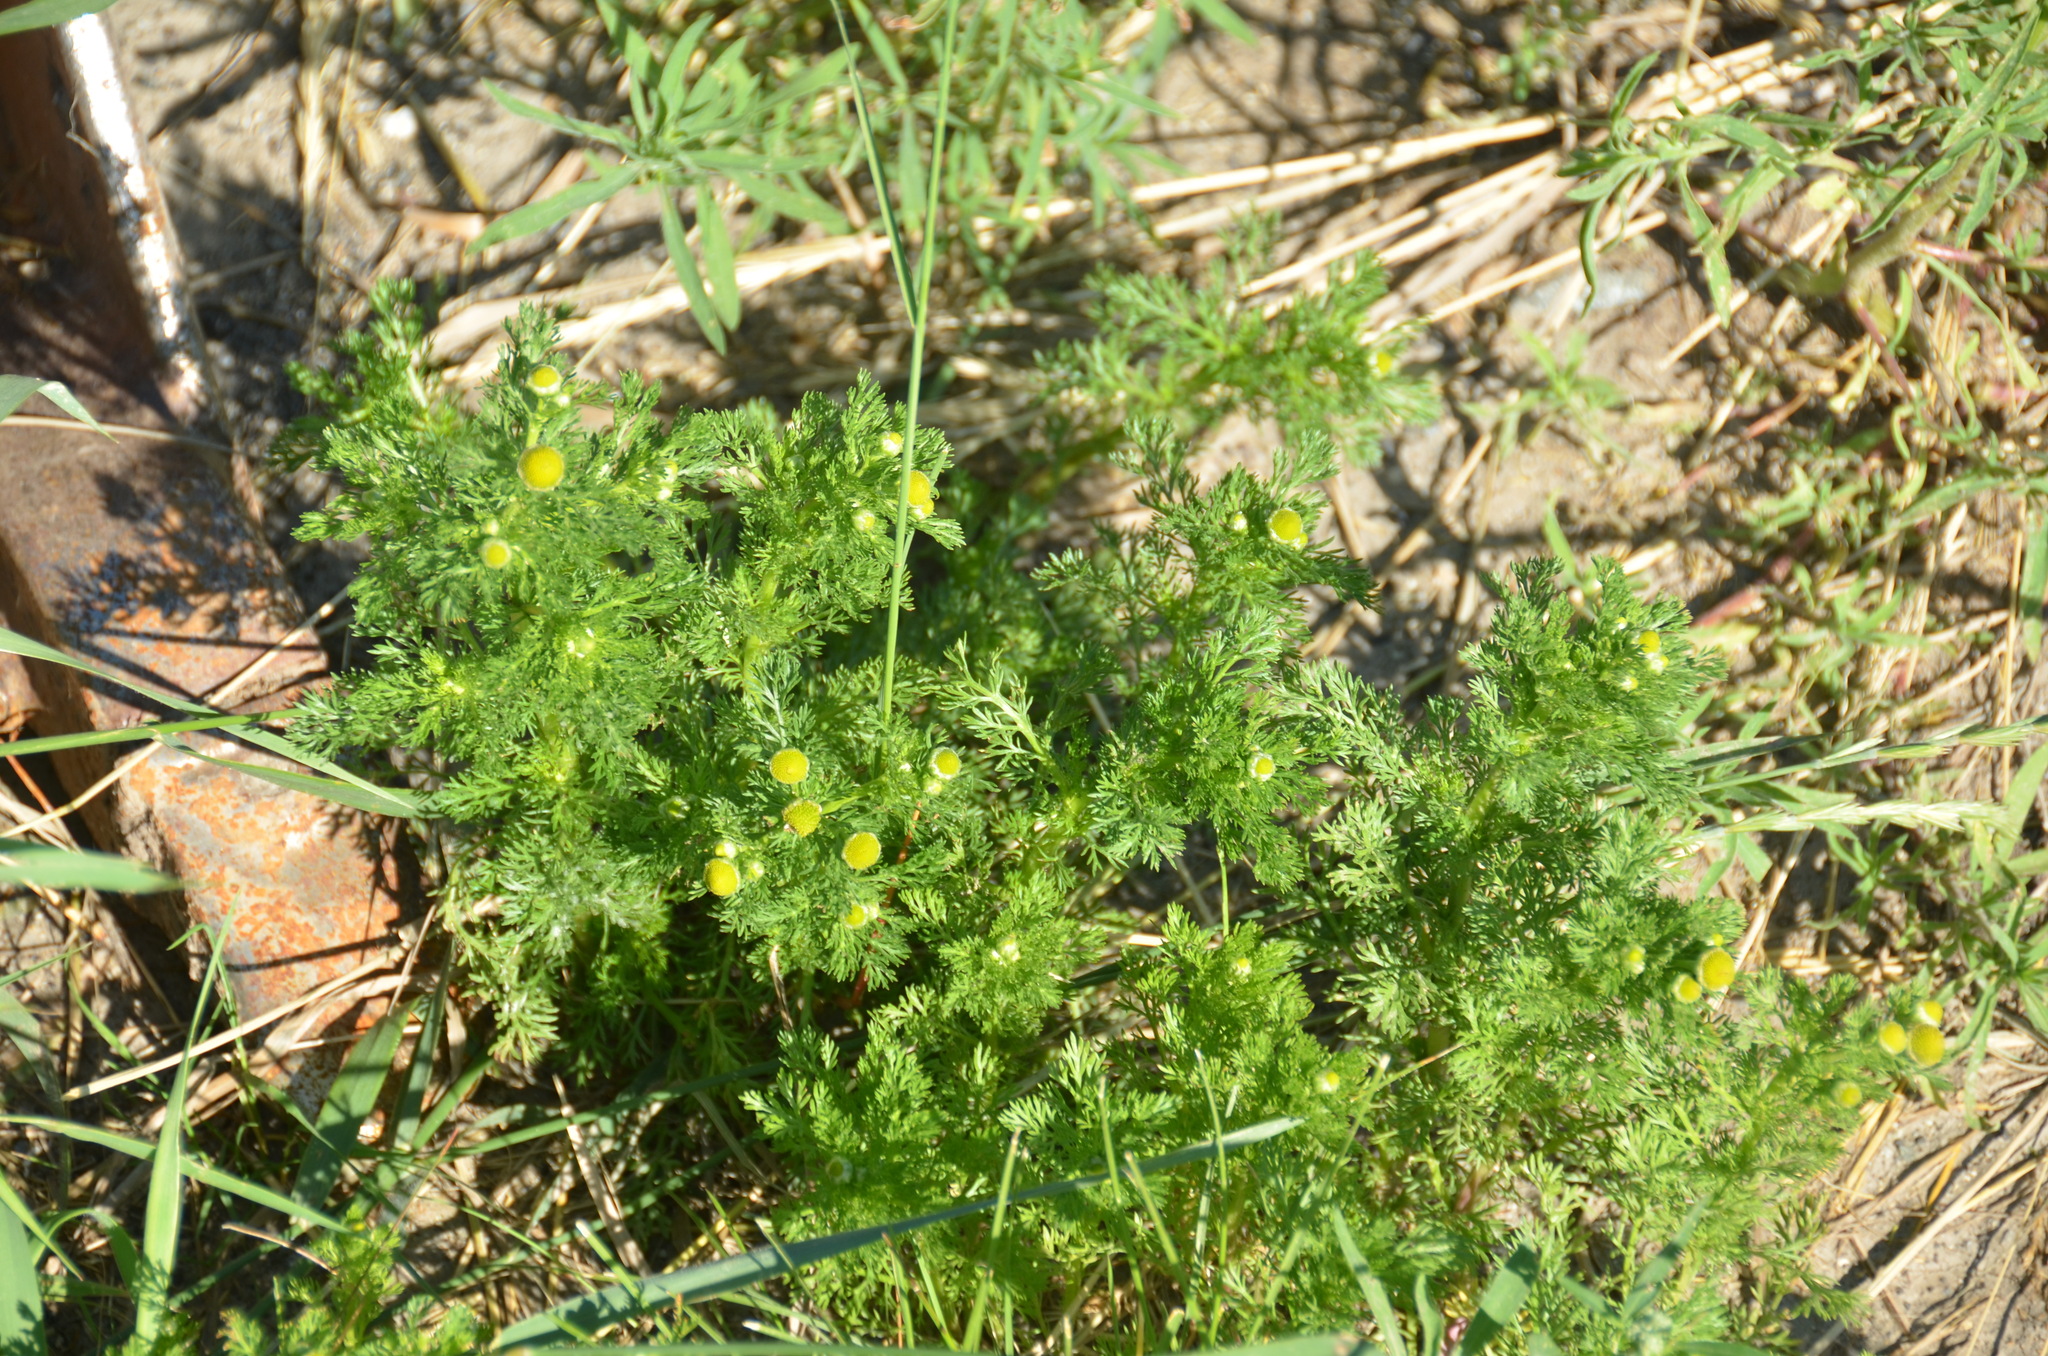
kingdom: Plantae
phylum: Tracheophyta
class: Magnoliopsida
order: Asterales
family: Asteraceae
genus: Matricaria
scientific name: Matricaria discoidea
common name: Disc mayweed
